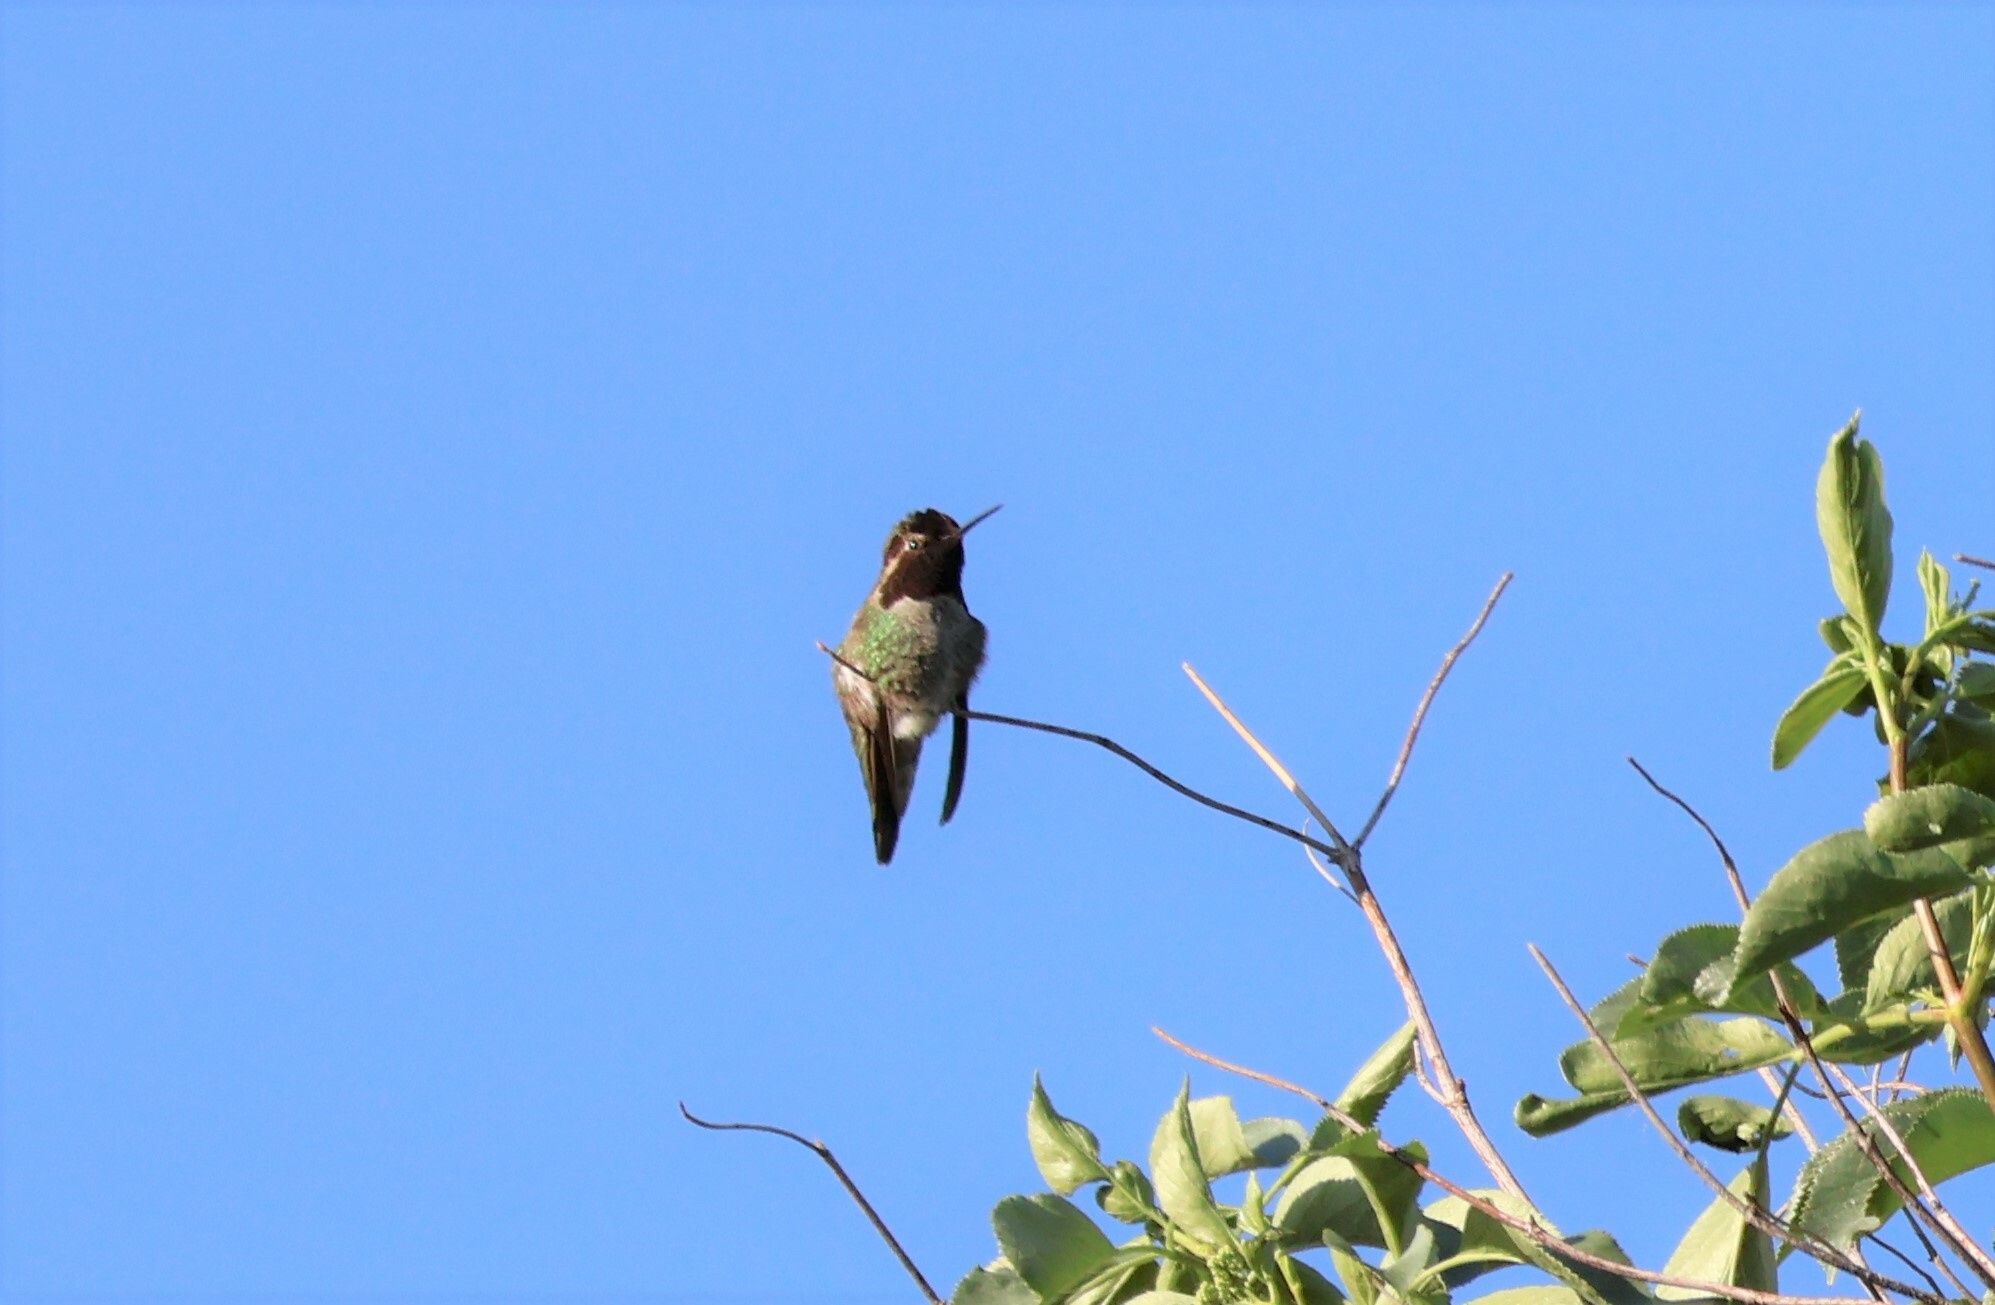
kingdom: Animalia
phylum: Chordata
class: Aves
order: Apodiformes
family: Trochilidae
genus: Calypte
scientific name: Calypte anna
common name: Anna's hummingbird
